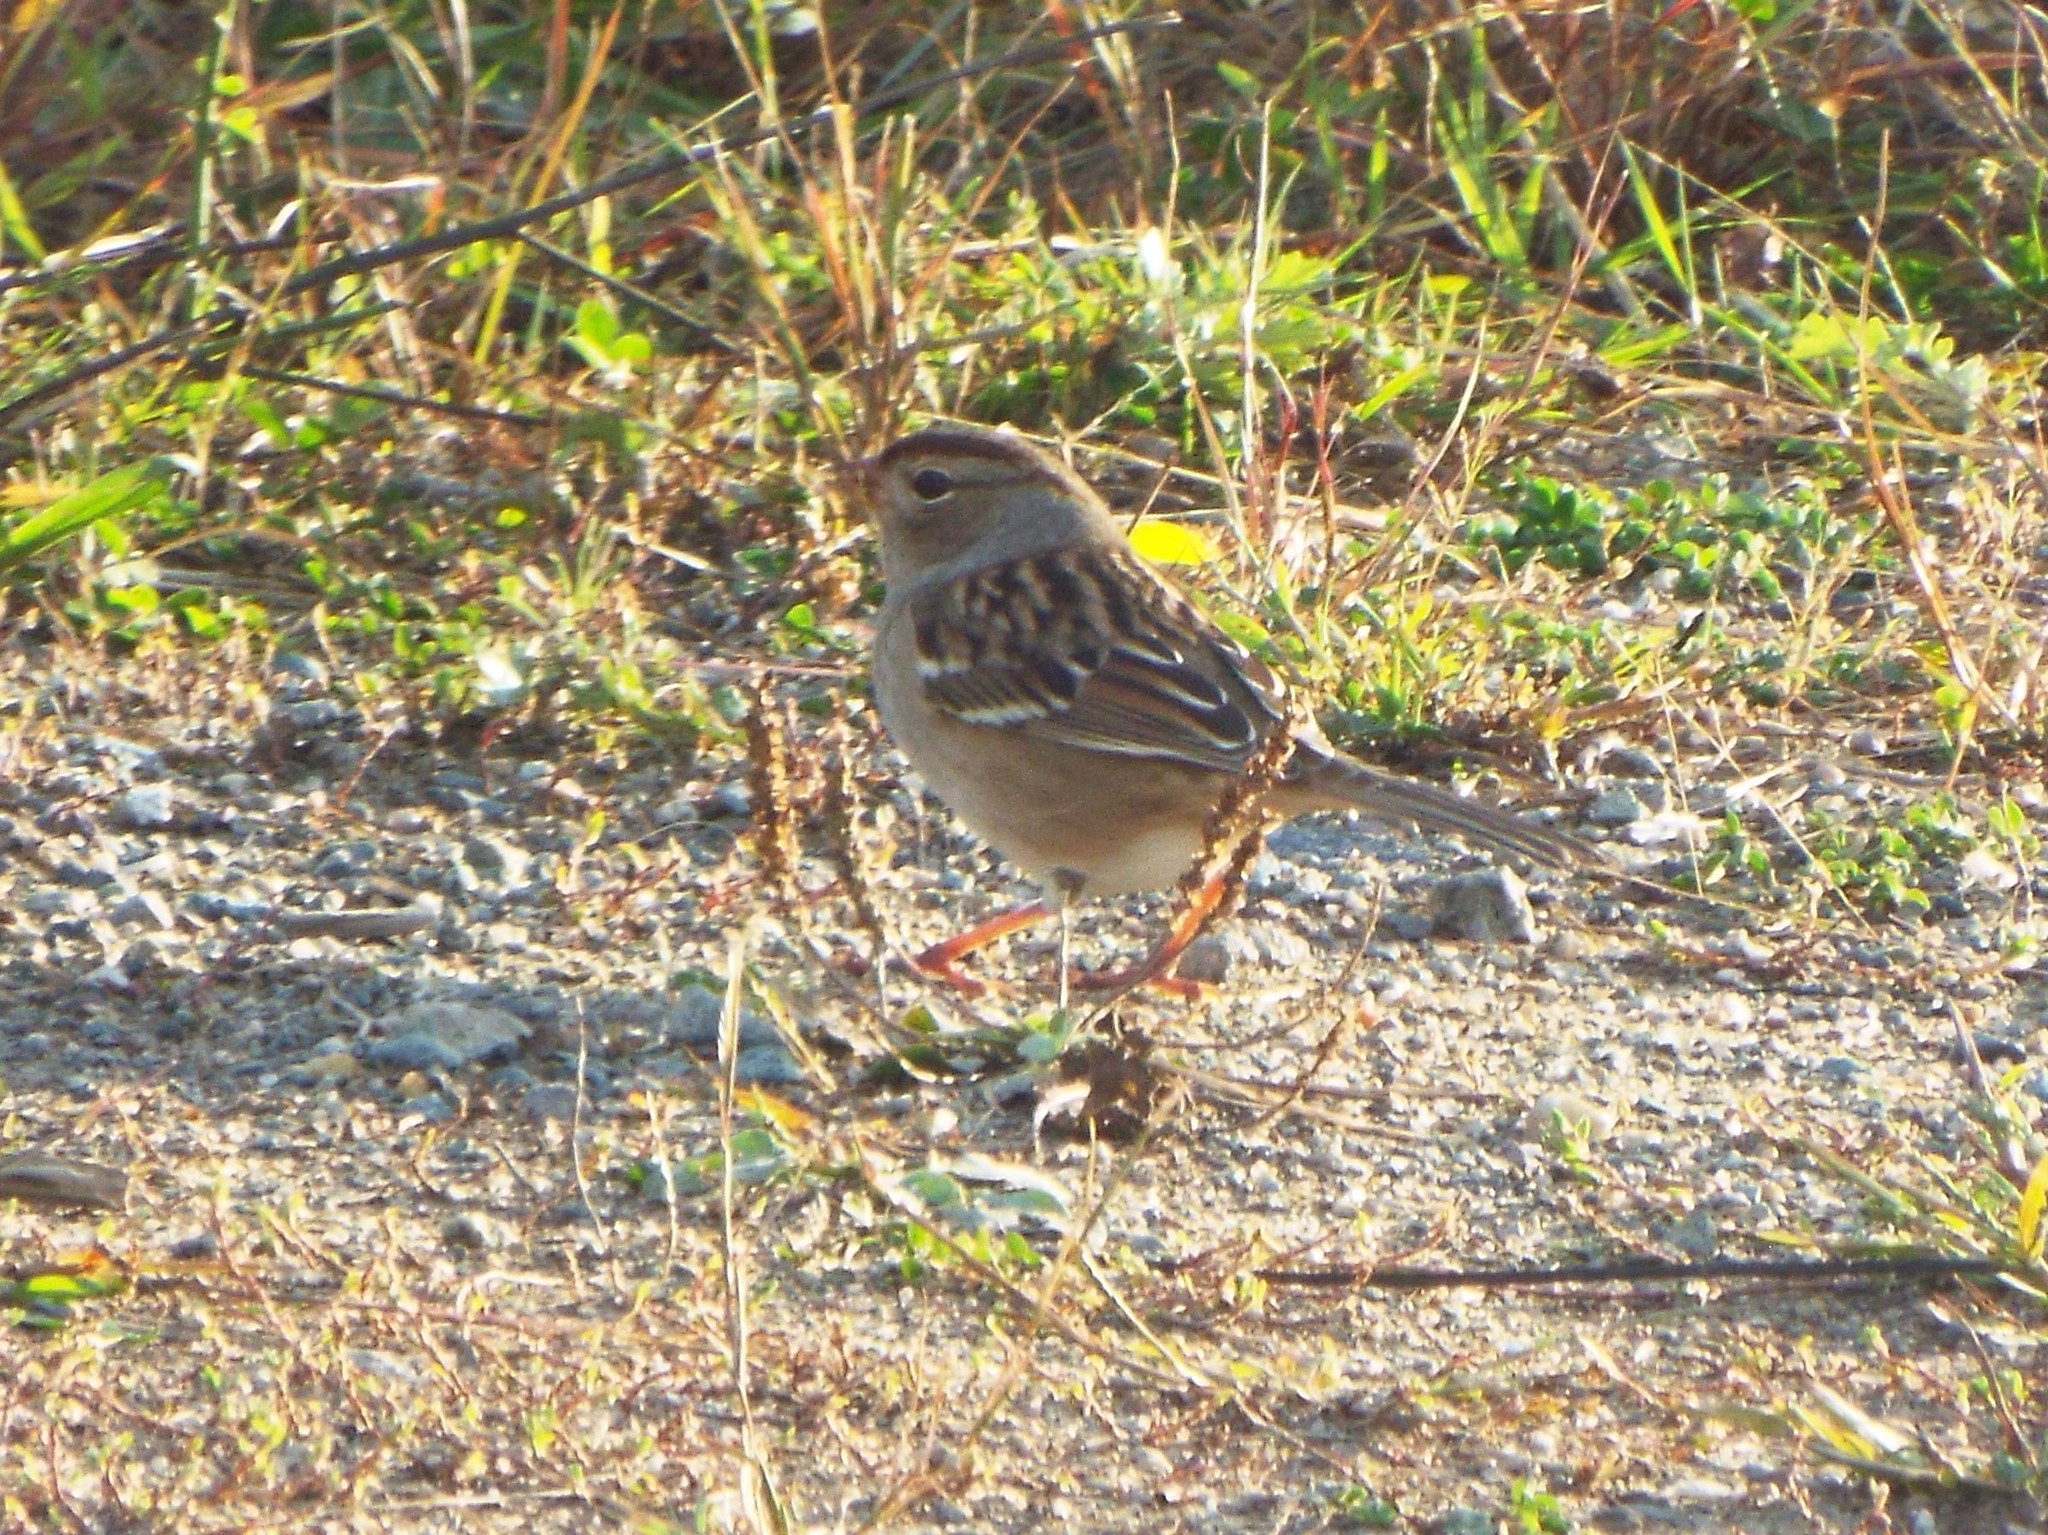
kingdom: Animalia
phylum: Chordata
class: Aves
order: Passeriformes
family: Passerellidae
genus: Zonotrichia
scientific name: Zonotrichia leucophrys
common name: White-crowned sparrow
